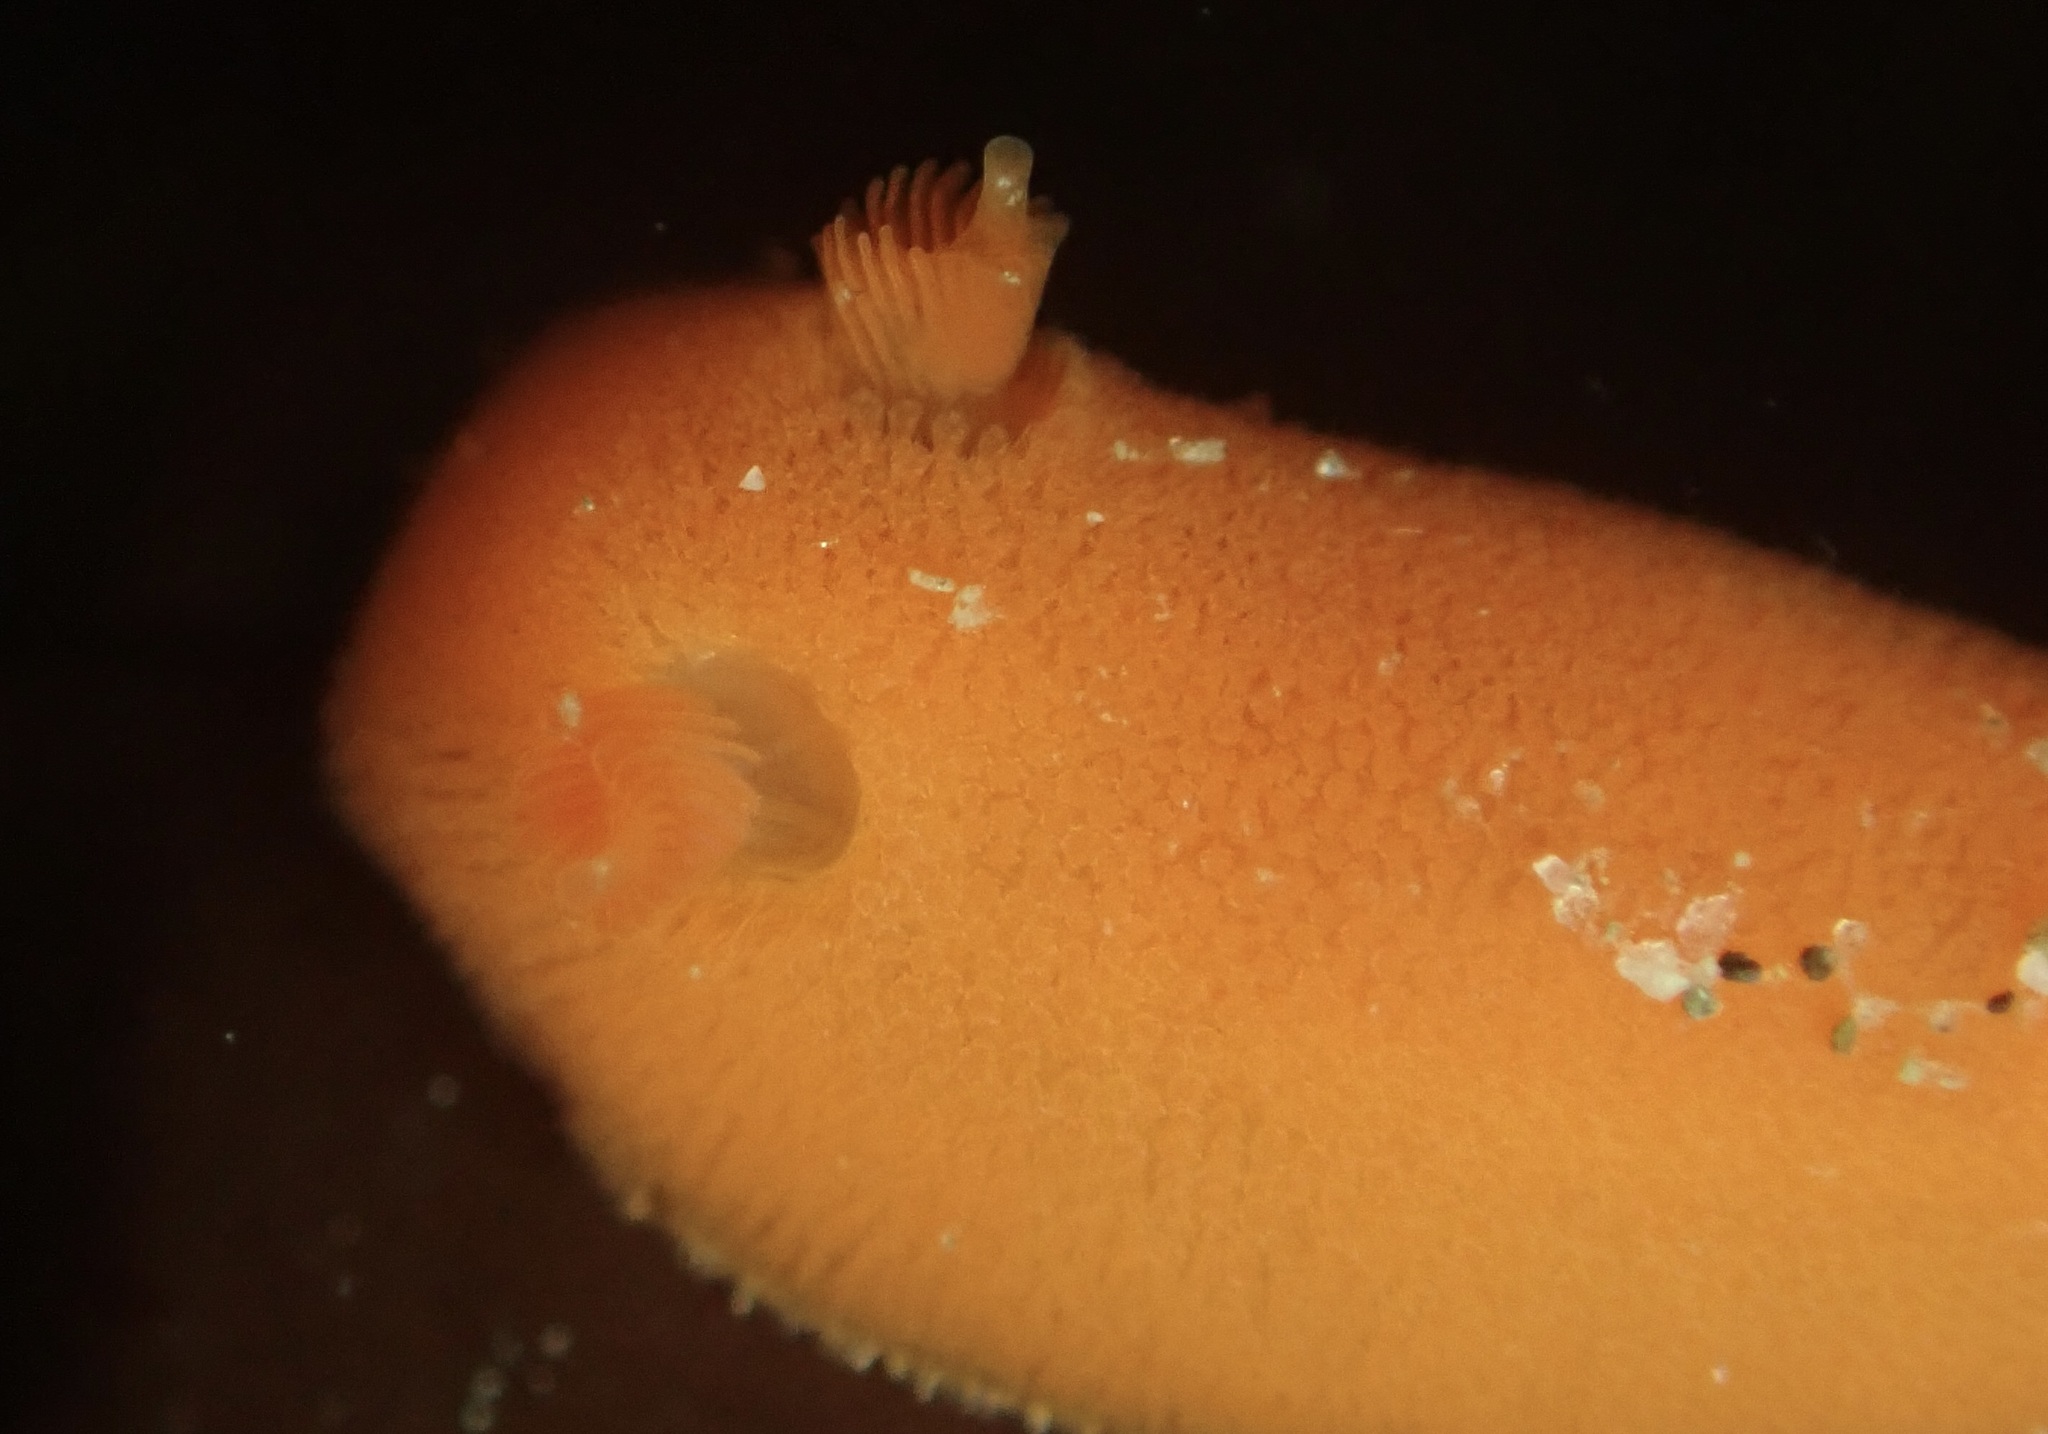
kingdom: Animalia
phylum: Mollusca
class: Gastropoda
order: Nudibranchia
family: Discodorididae
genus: Rostanga
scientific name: Rostanga pulchra
